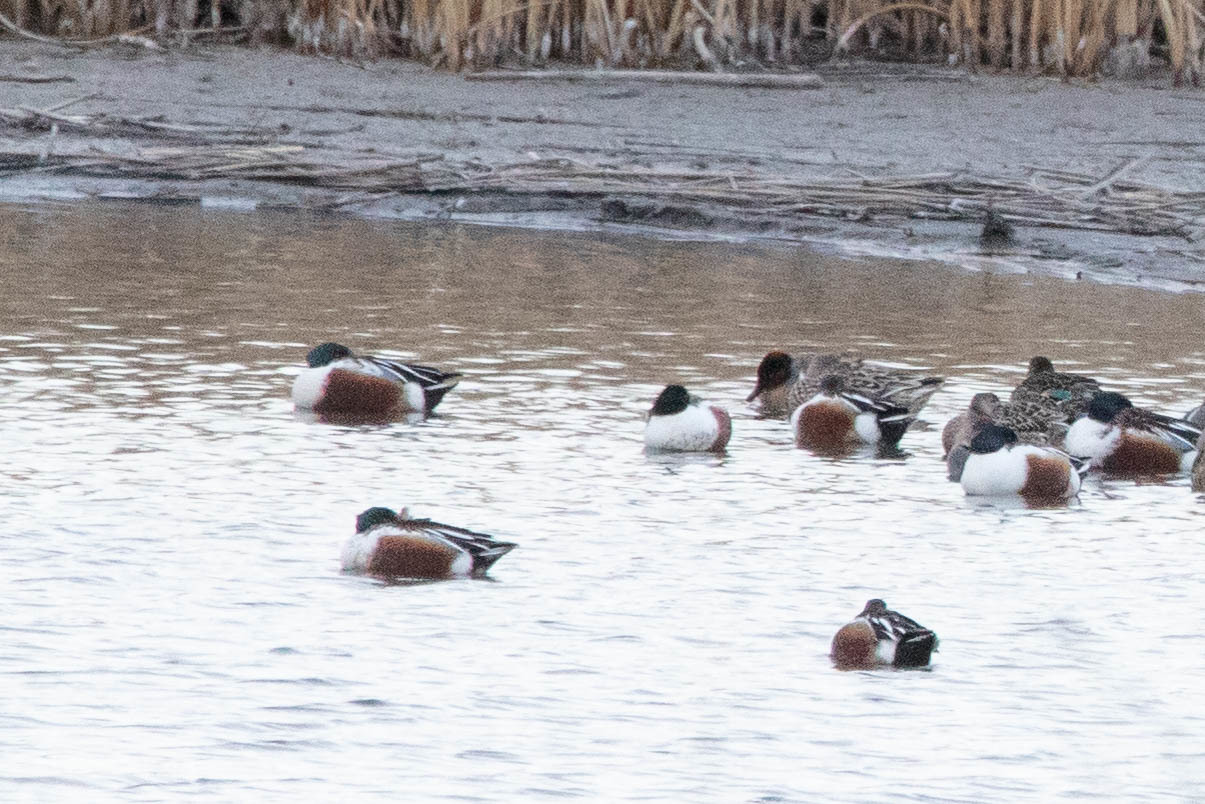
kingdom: Animalia
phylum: Chordata
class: Aves
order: Anseriformes
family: Anatidae
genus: Spatula
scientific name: Spatula clypeata
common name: Northern shoveler
